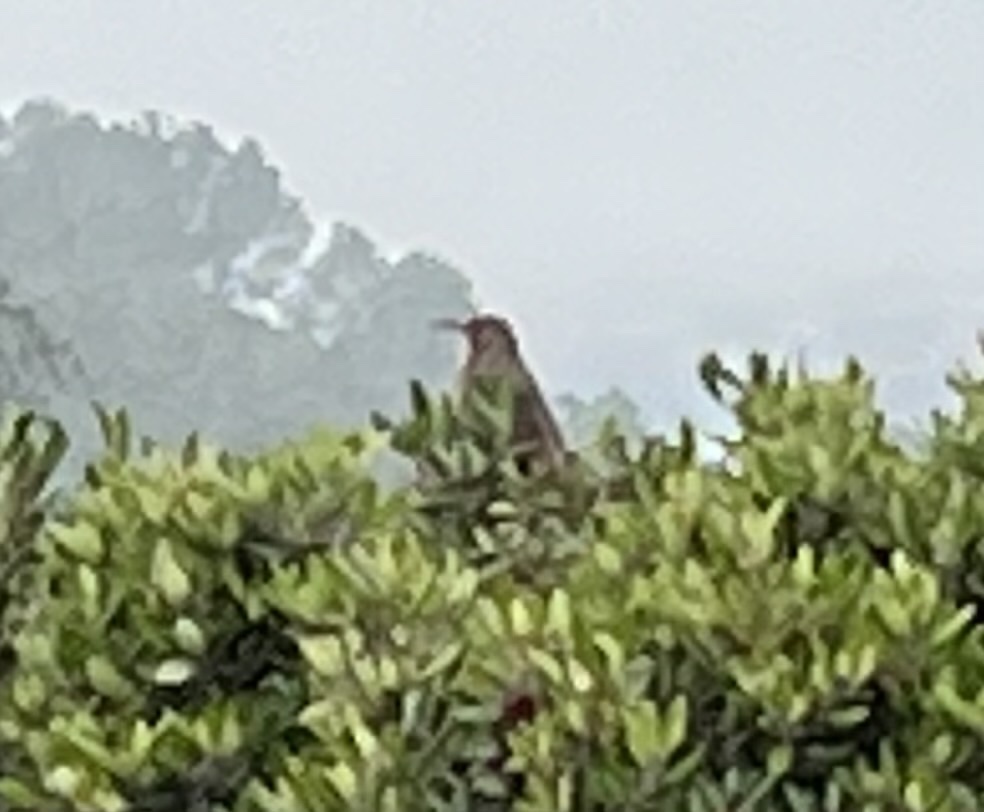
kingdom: Animalia
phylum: Chordata
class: Aves
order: Passeriformes
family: Mimidae
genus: Toxostoma
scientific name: Toxostoma redivivum
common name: California thrasher
